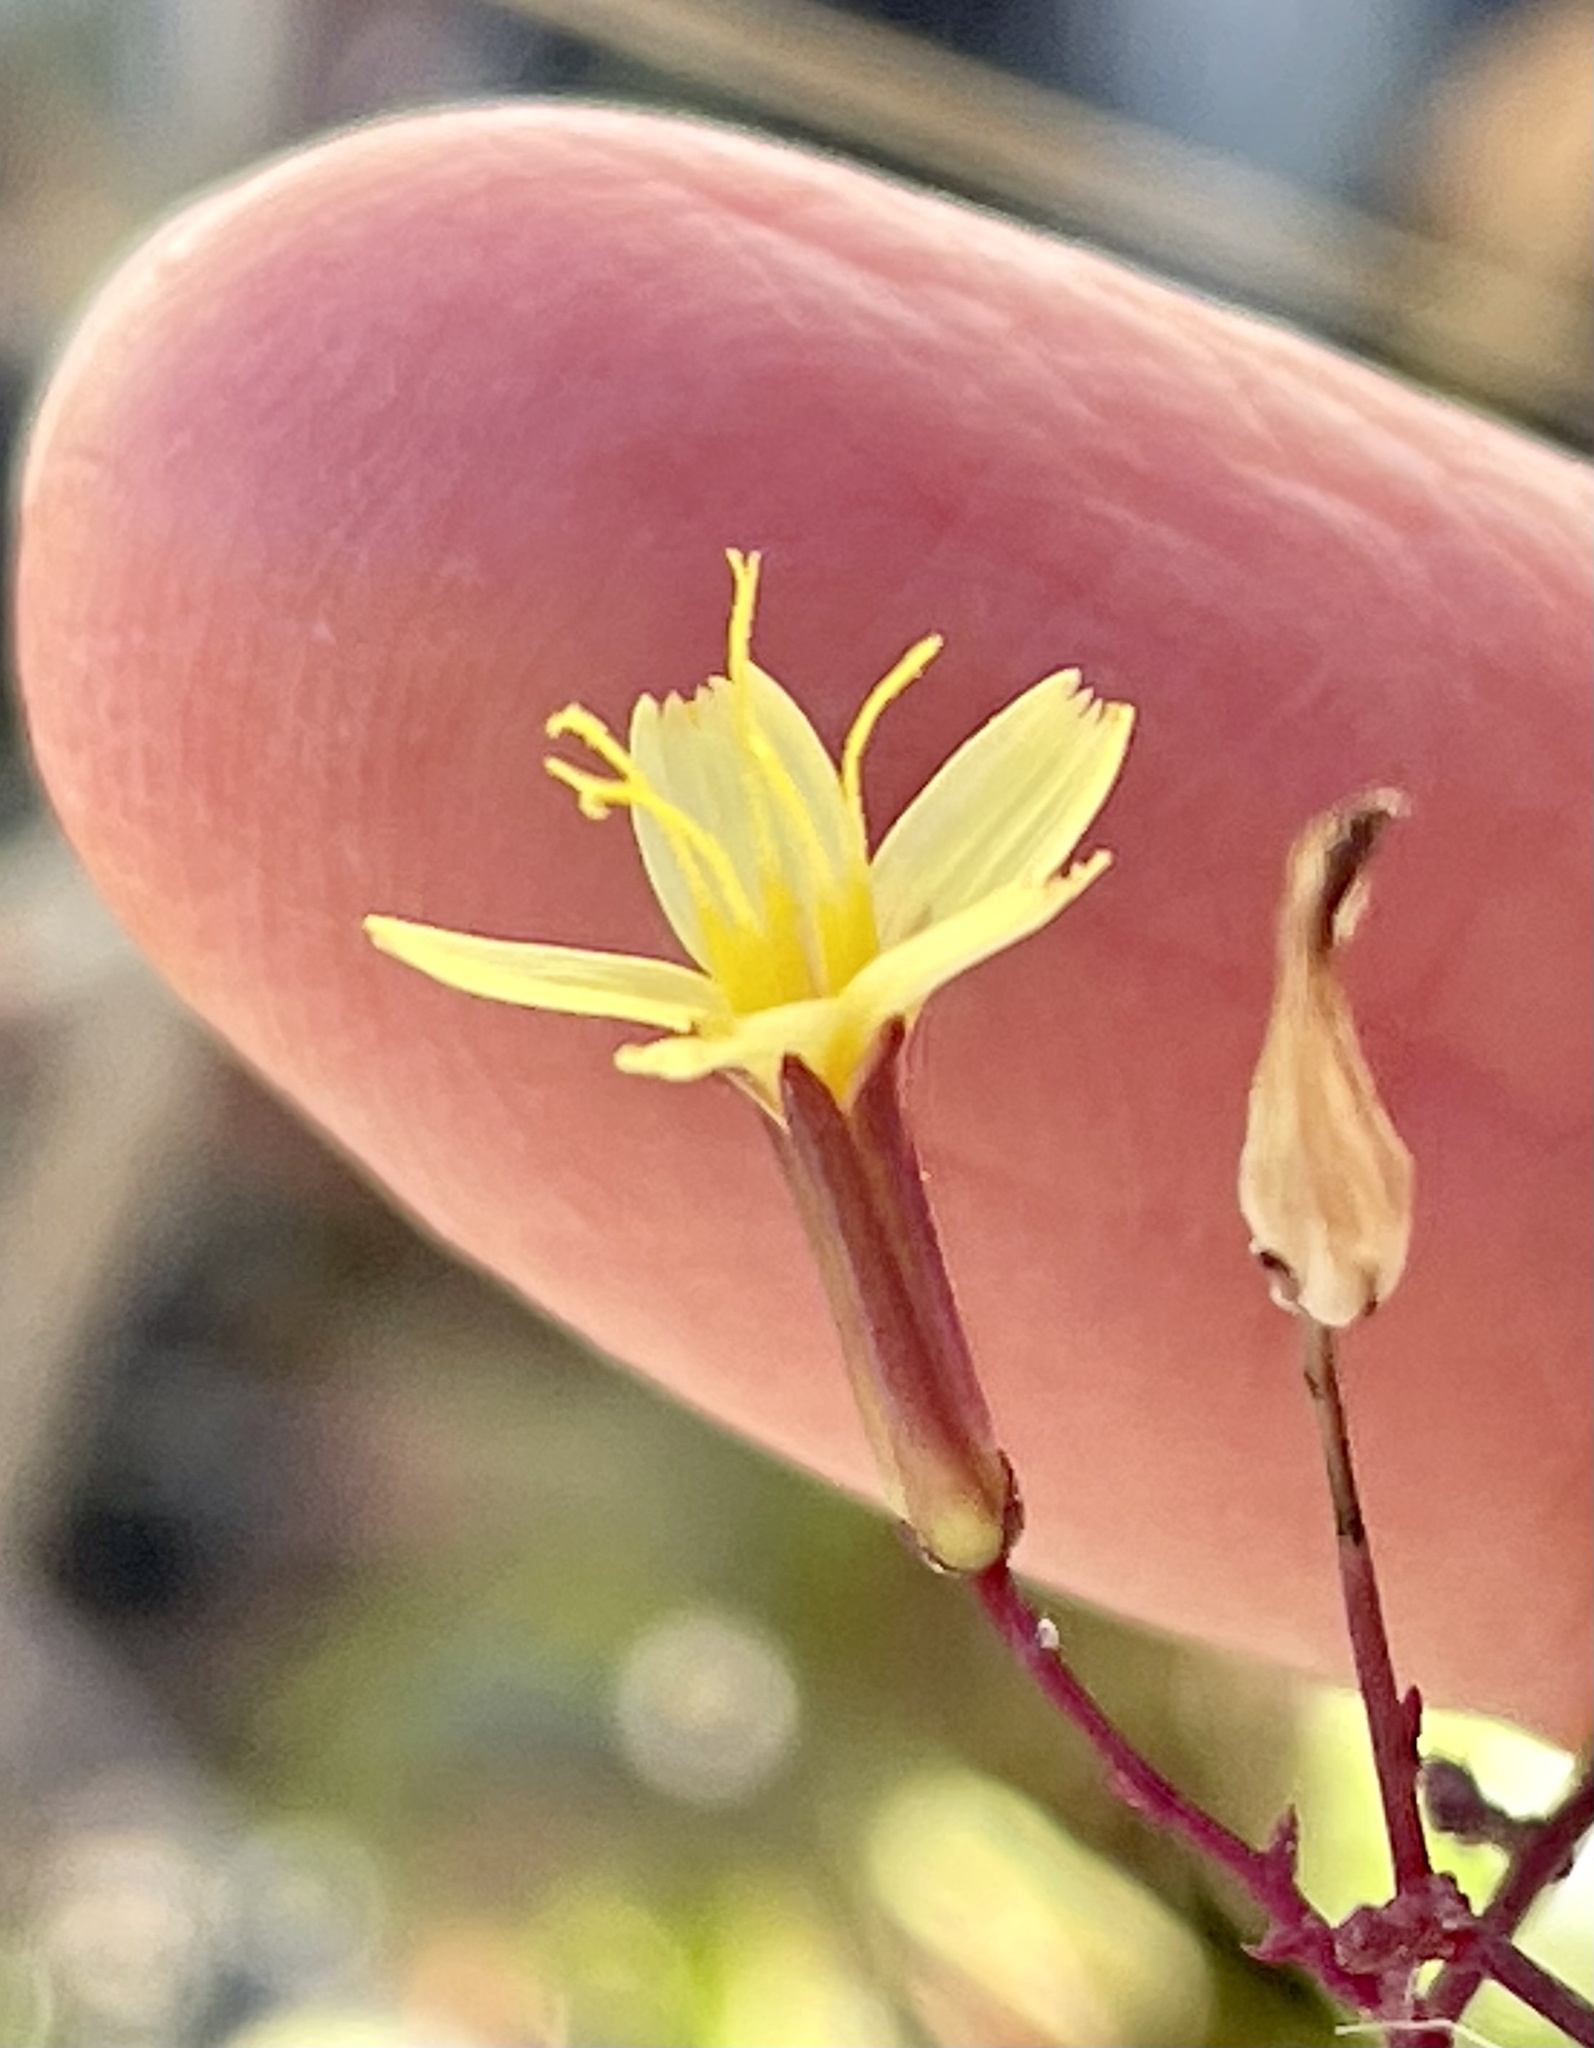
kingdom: Plantae
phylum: Tracheophyta
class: Magnoliopsida
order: Asterales
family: Asteraceae
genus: Mycelis
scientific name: Mycelis muralis
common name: Wall lettuce
